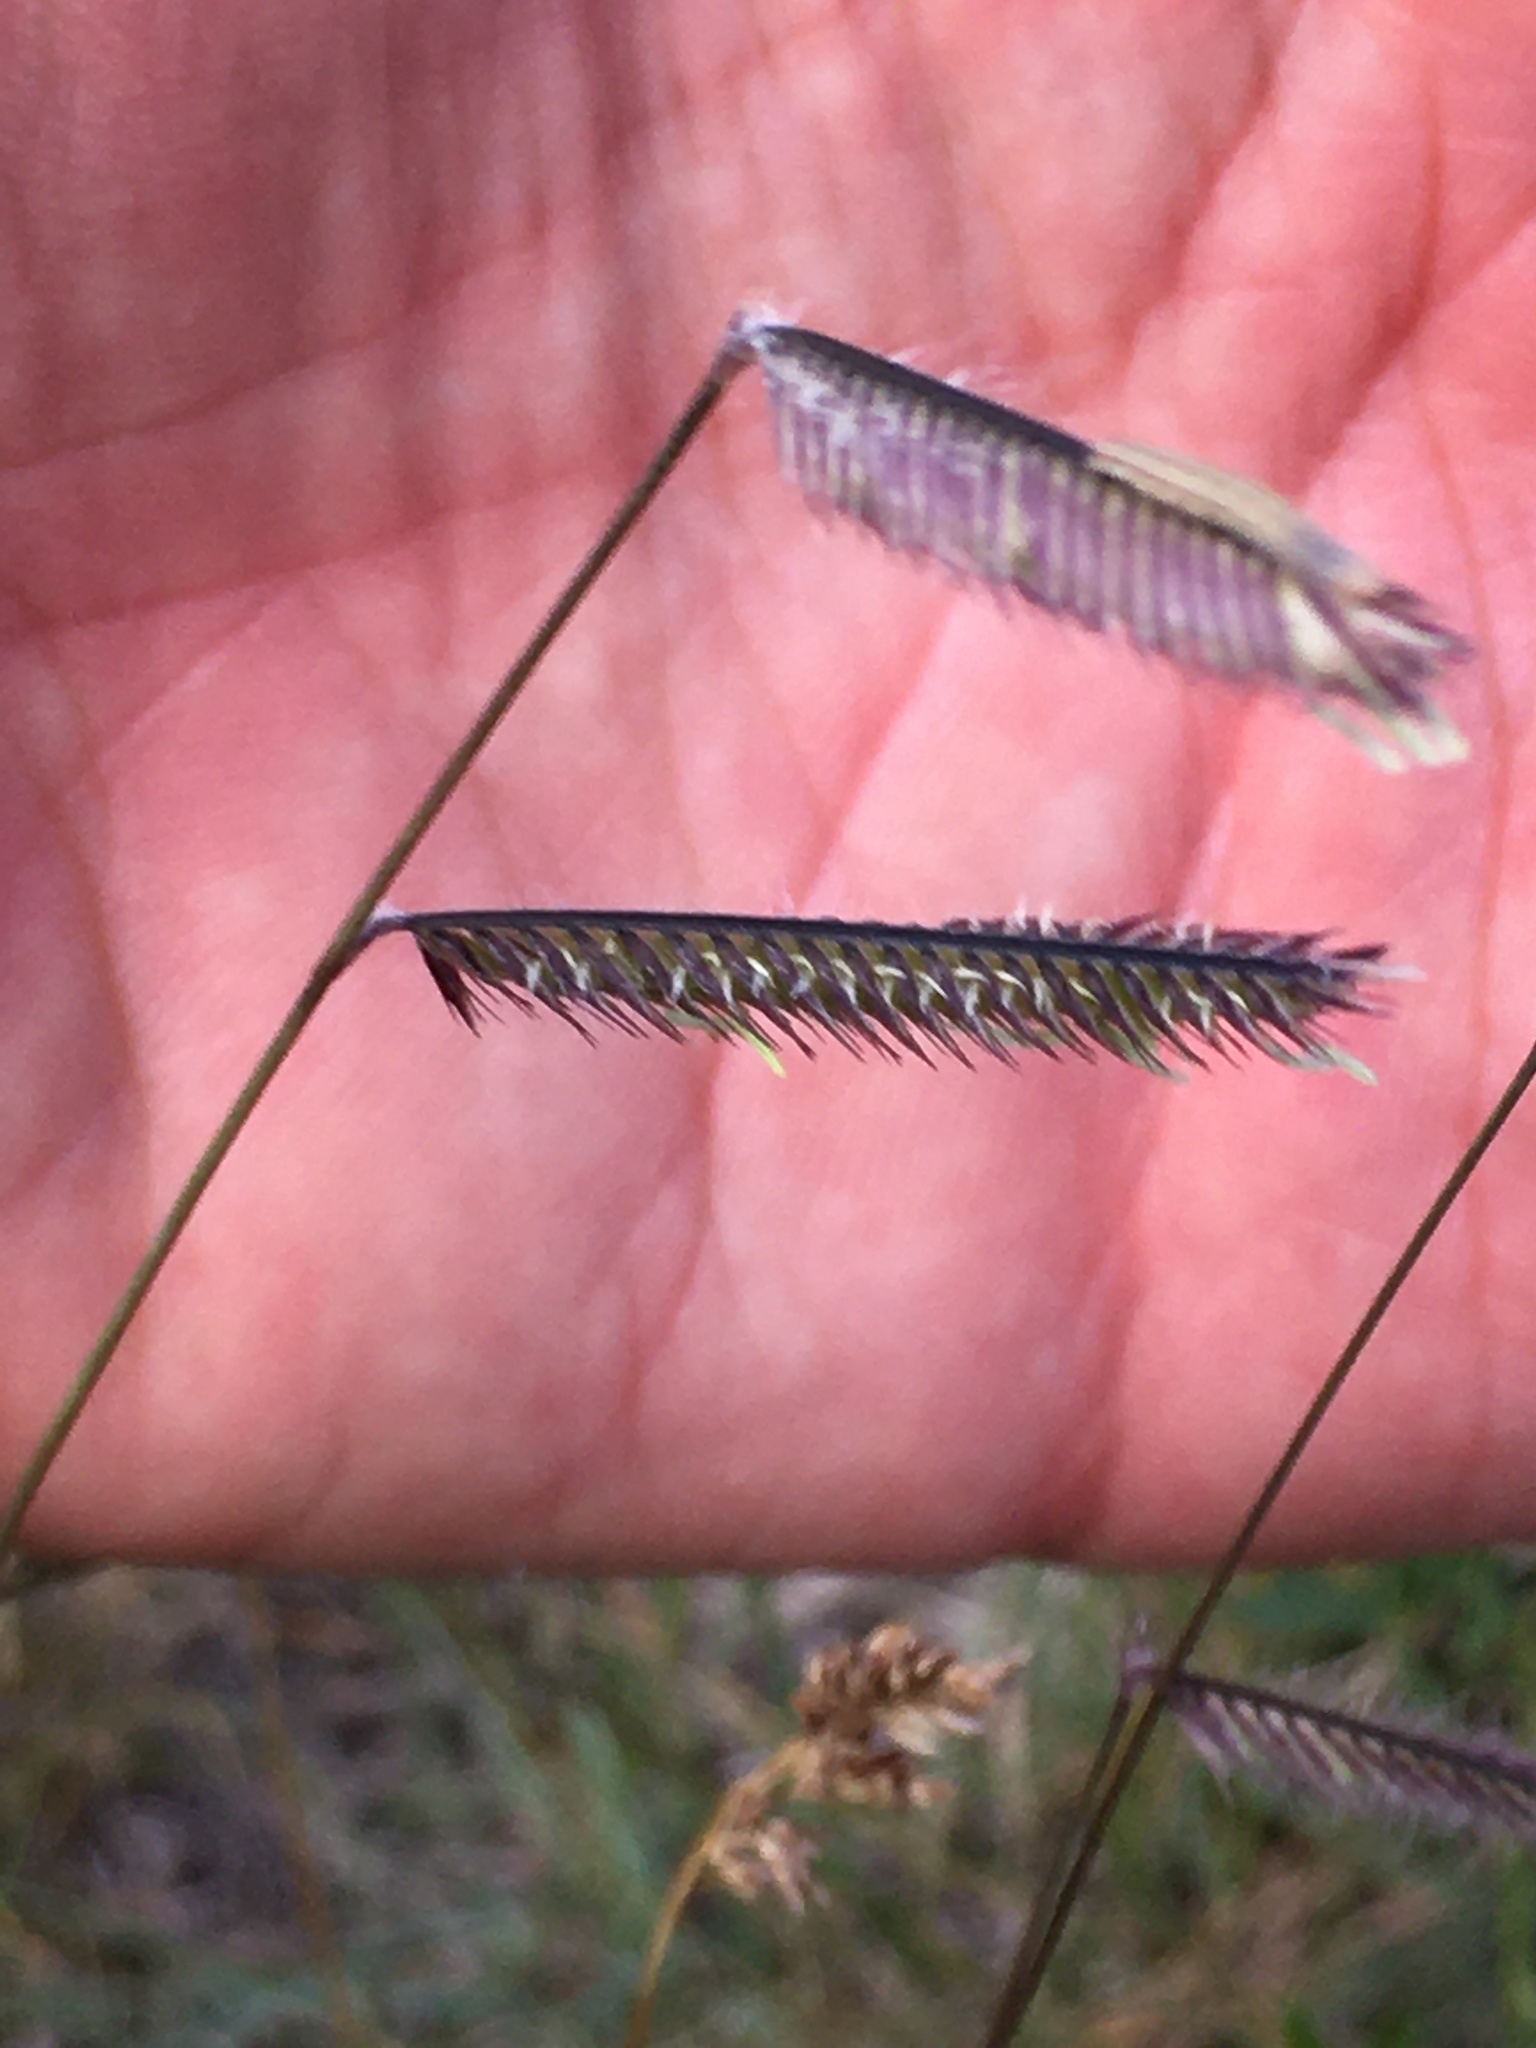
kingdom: Plantae
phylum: Tracheophyta
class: Liliopsida
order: Poales
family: Poaceae
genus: Bouteloua
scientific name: Bouteloua gracilis
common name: Blue grama
